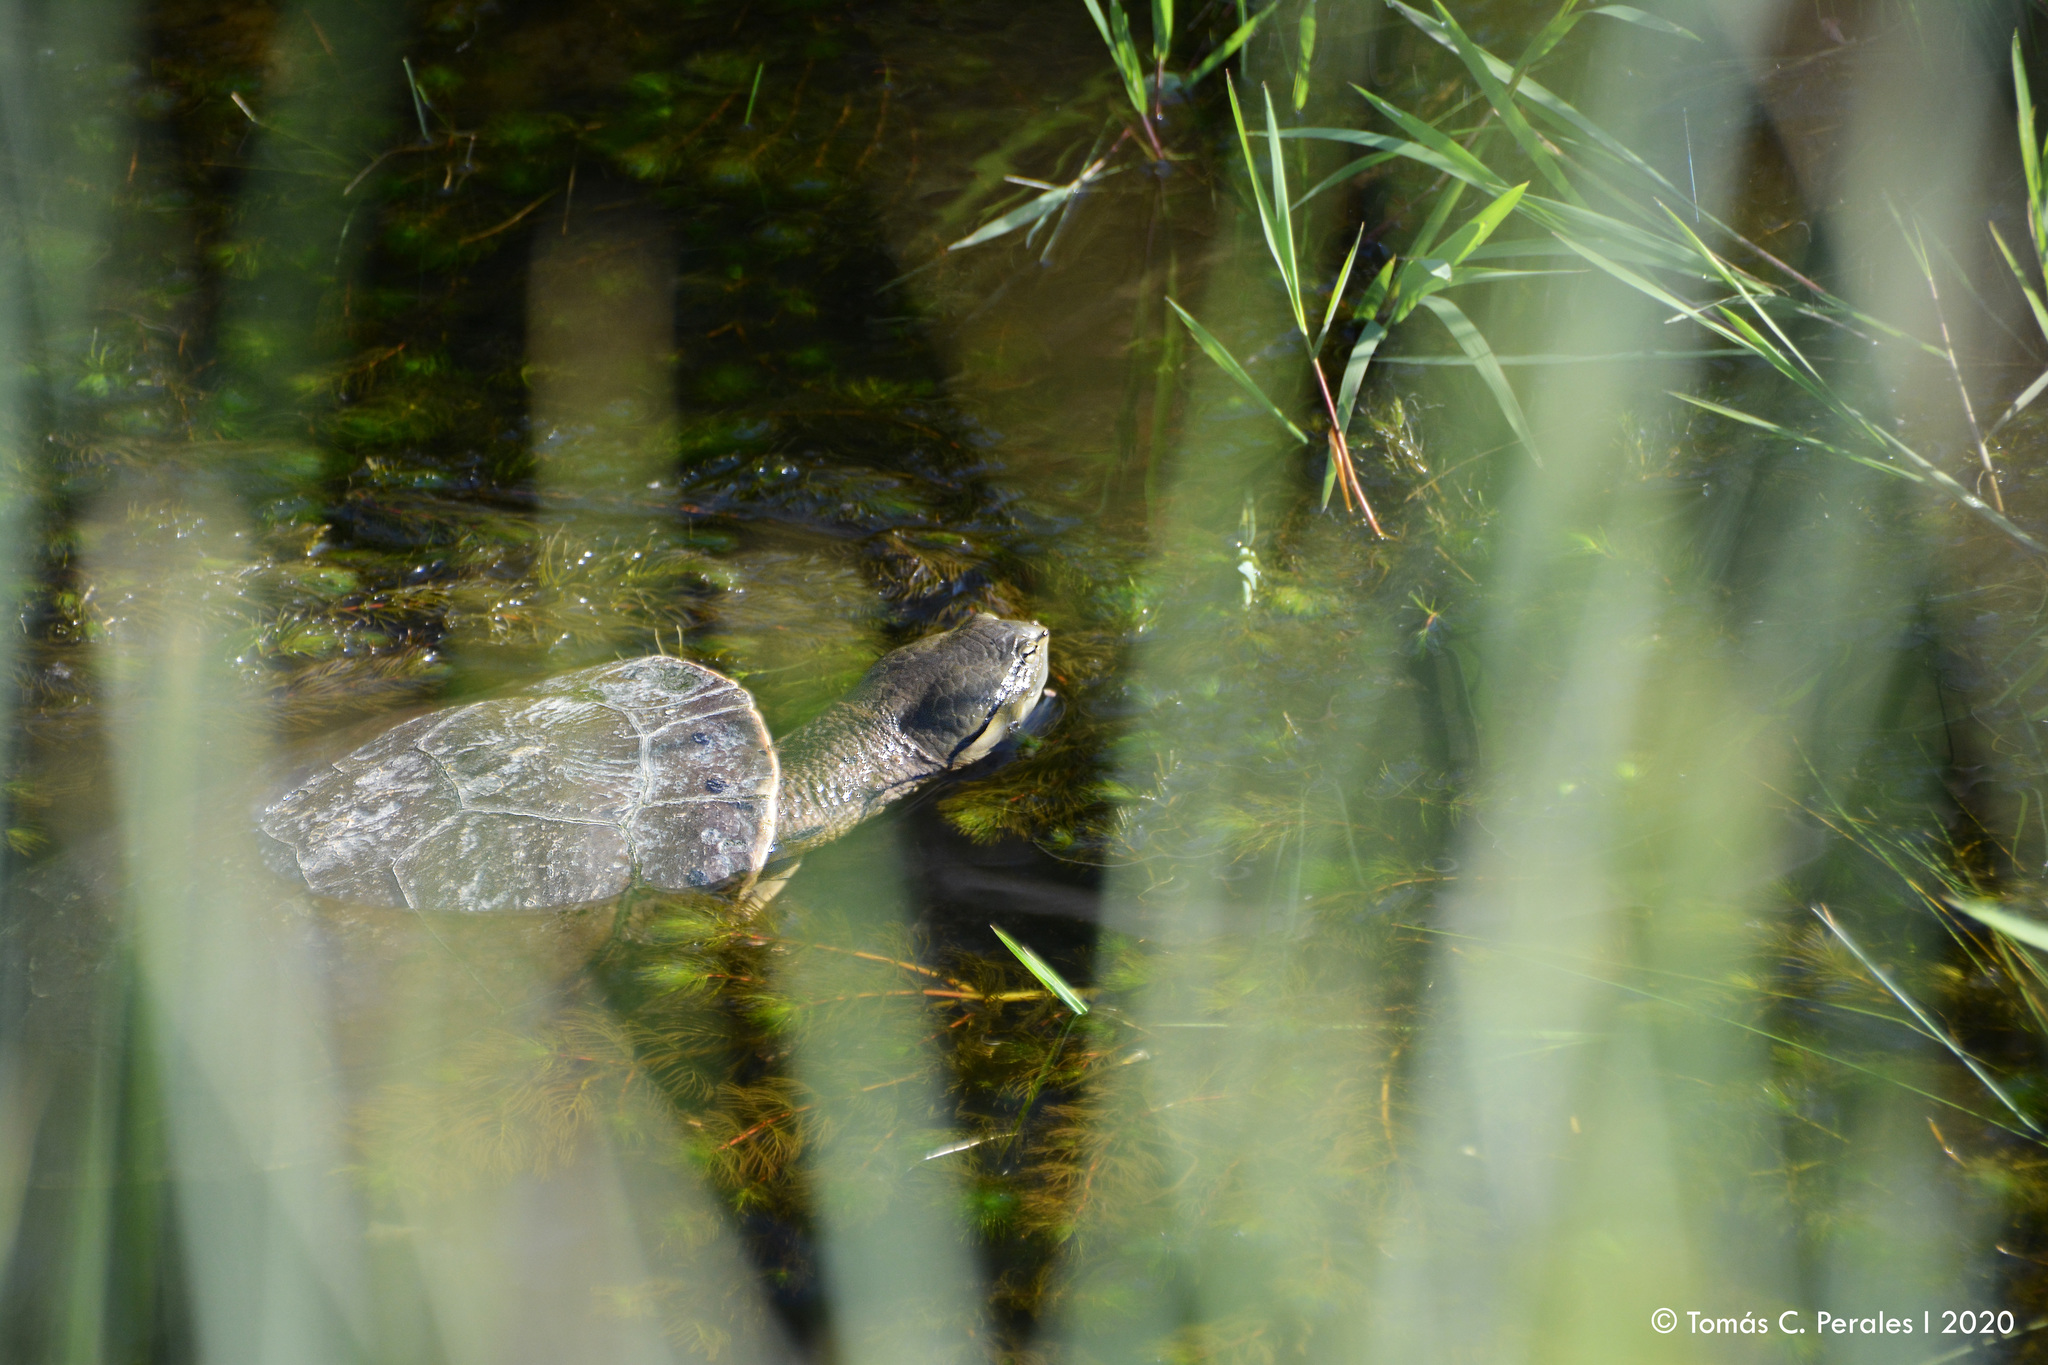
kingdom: Animalia
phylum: Chordata
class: Testudines
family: Chelidae
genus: Phrynops
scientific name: Phrynops hilarii
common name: Side-necked turtle of saint hillaire
